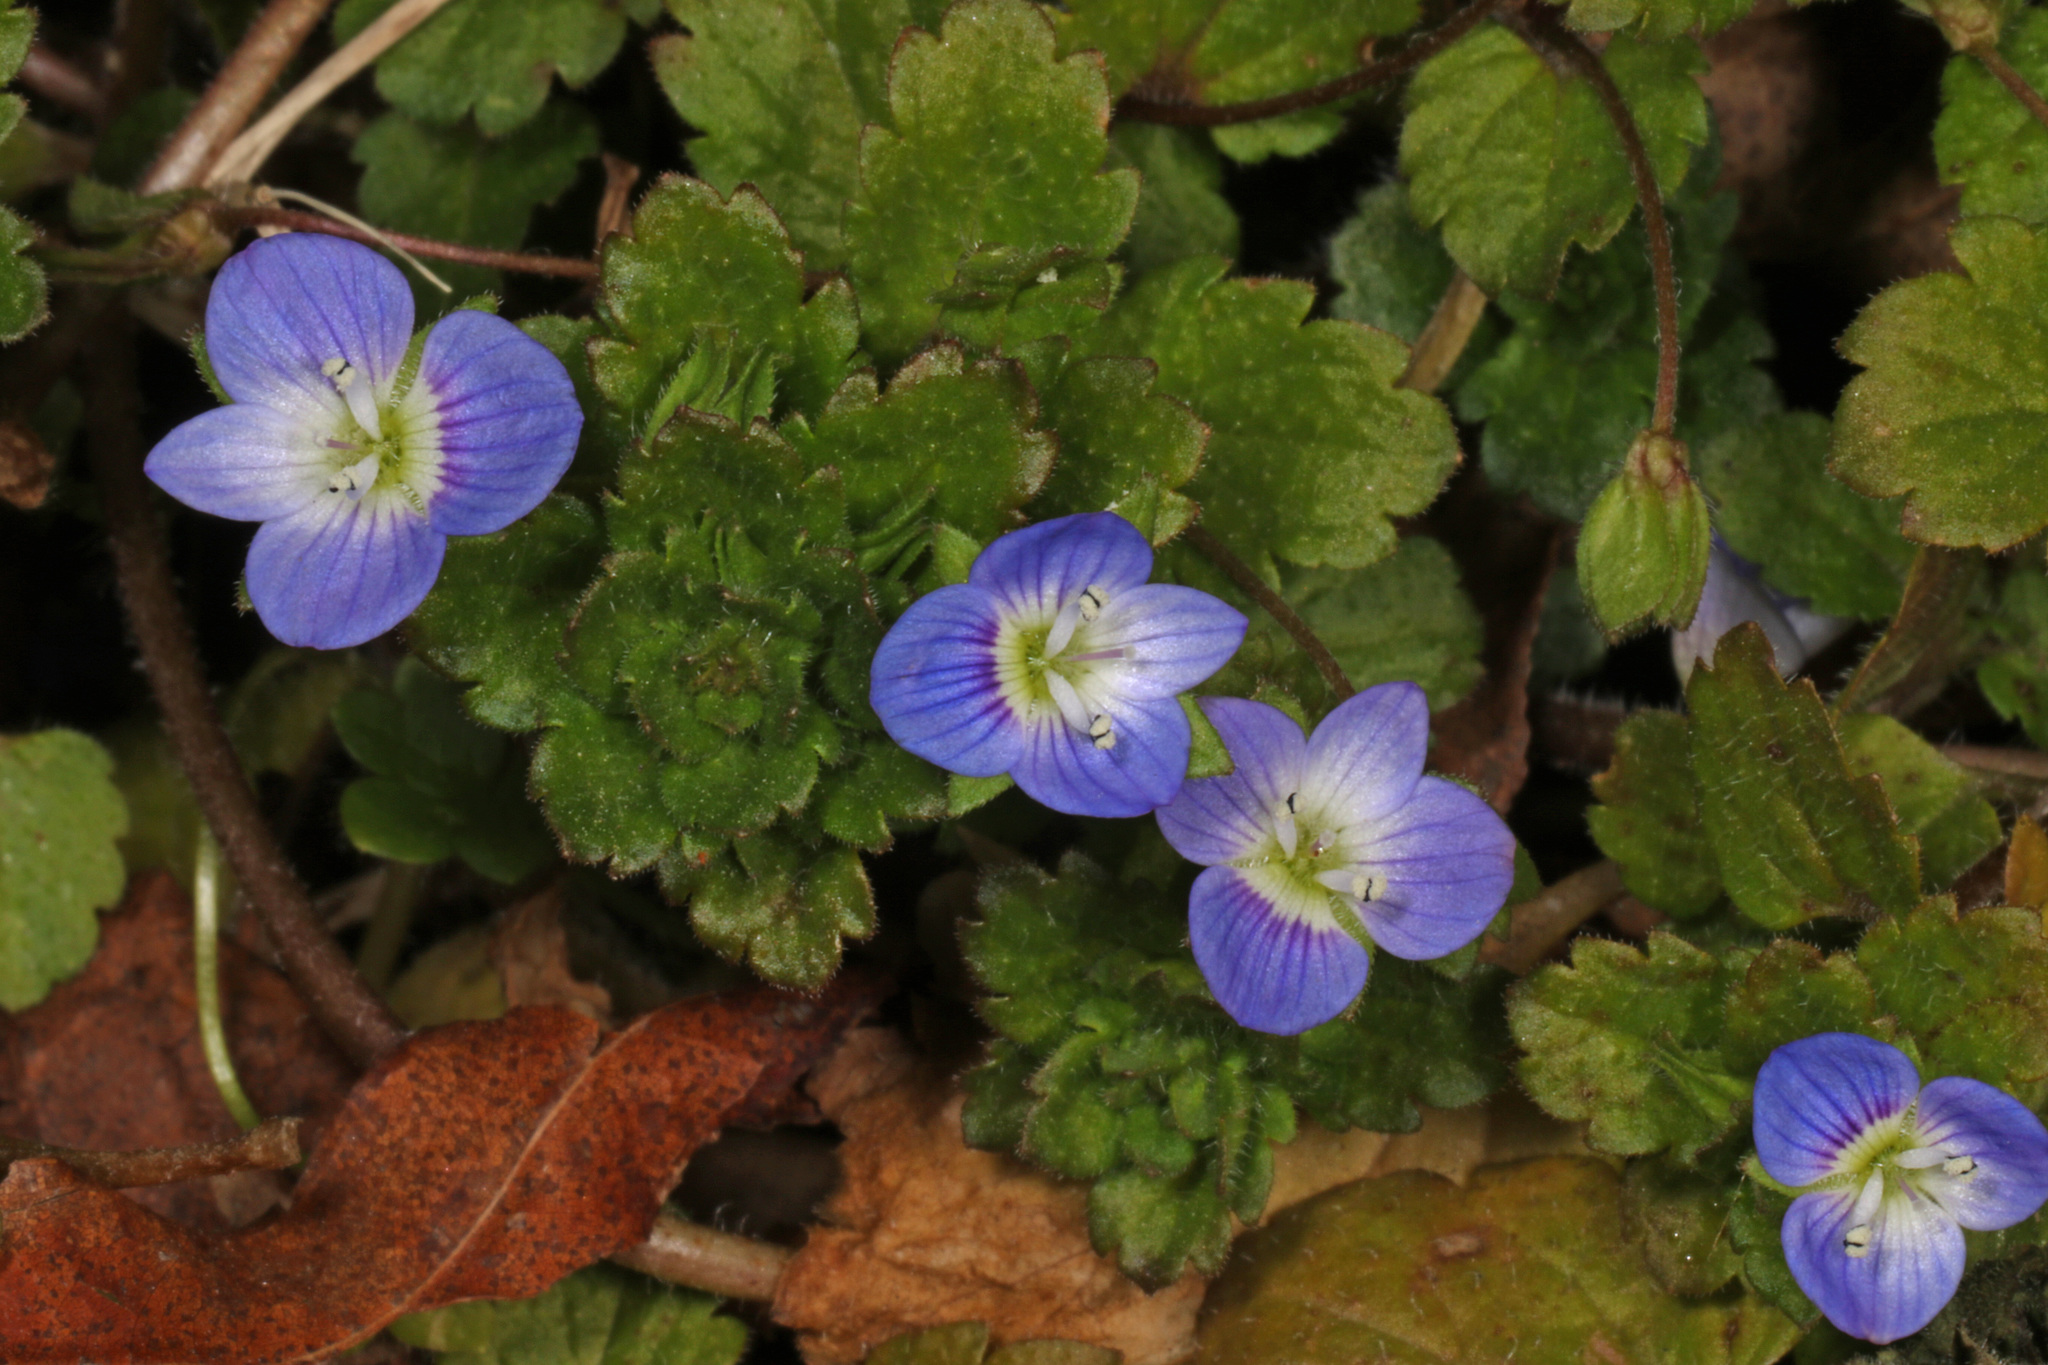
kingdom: Plantae
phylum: Tracheophyta
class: Magnoliopsida
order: Lamiales
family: Plantaginaceae
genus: Veronica
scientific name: Veronica persica
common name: Common field-speedwell
